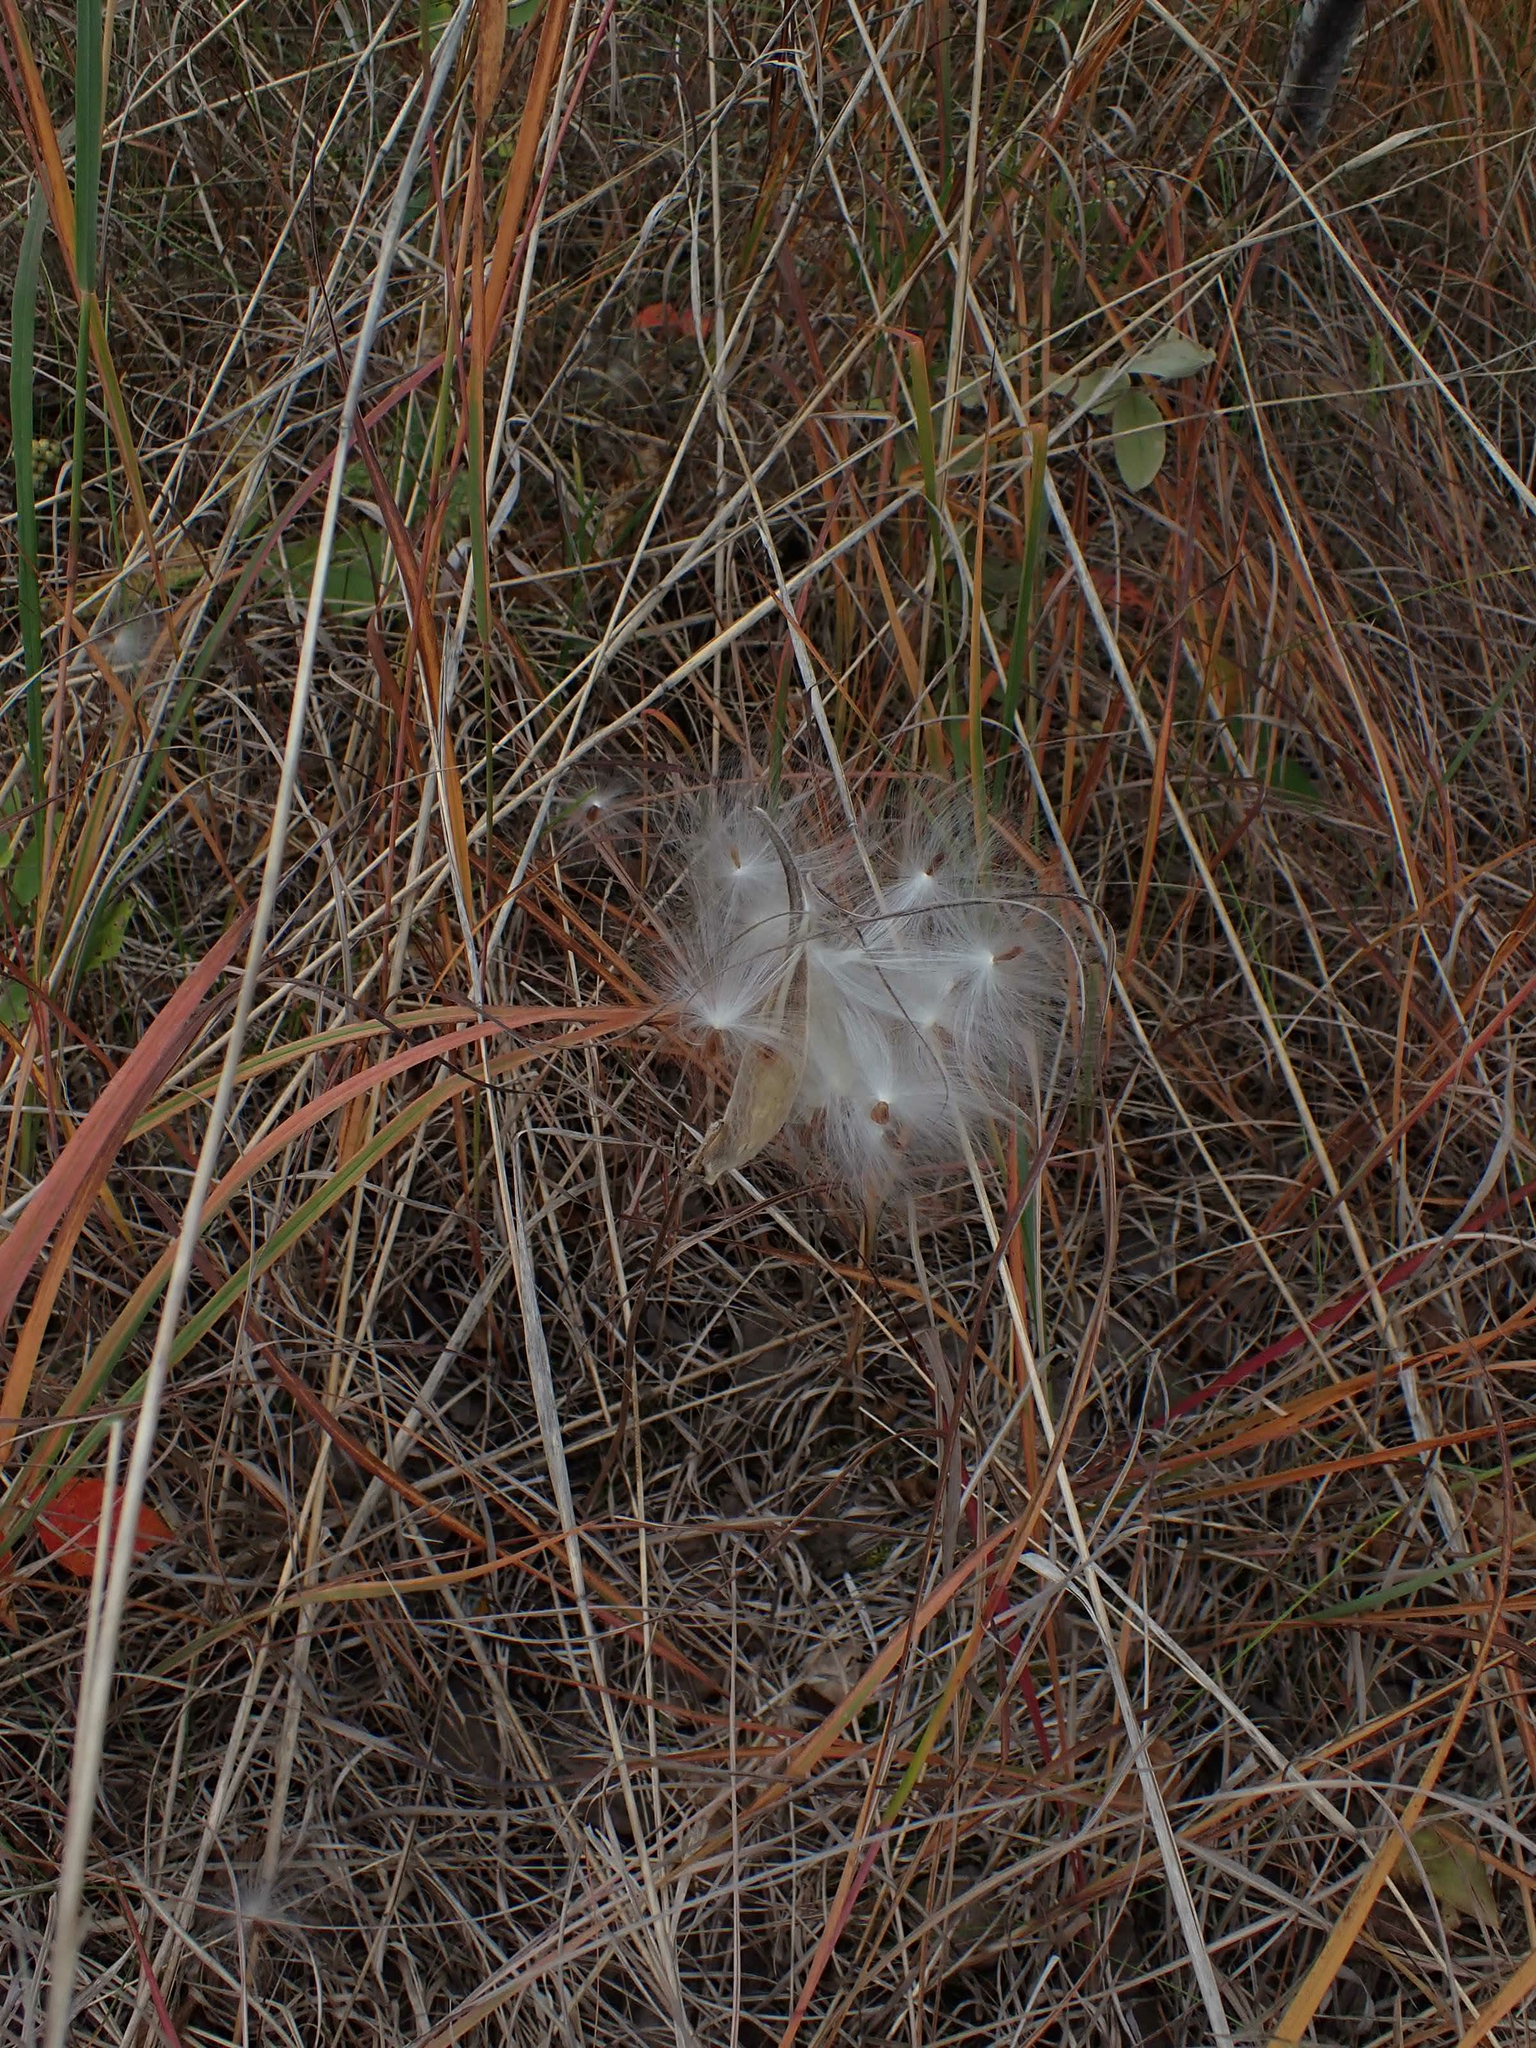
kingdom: Plantae
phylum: Tracheophyta
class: Magnoliopsida
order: Gentianales
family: Apocynaceae
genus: Asclepias
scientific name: Asclepias ovalifolia
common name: Dwarf milkweed
